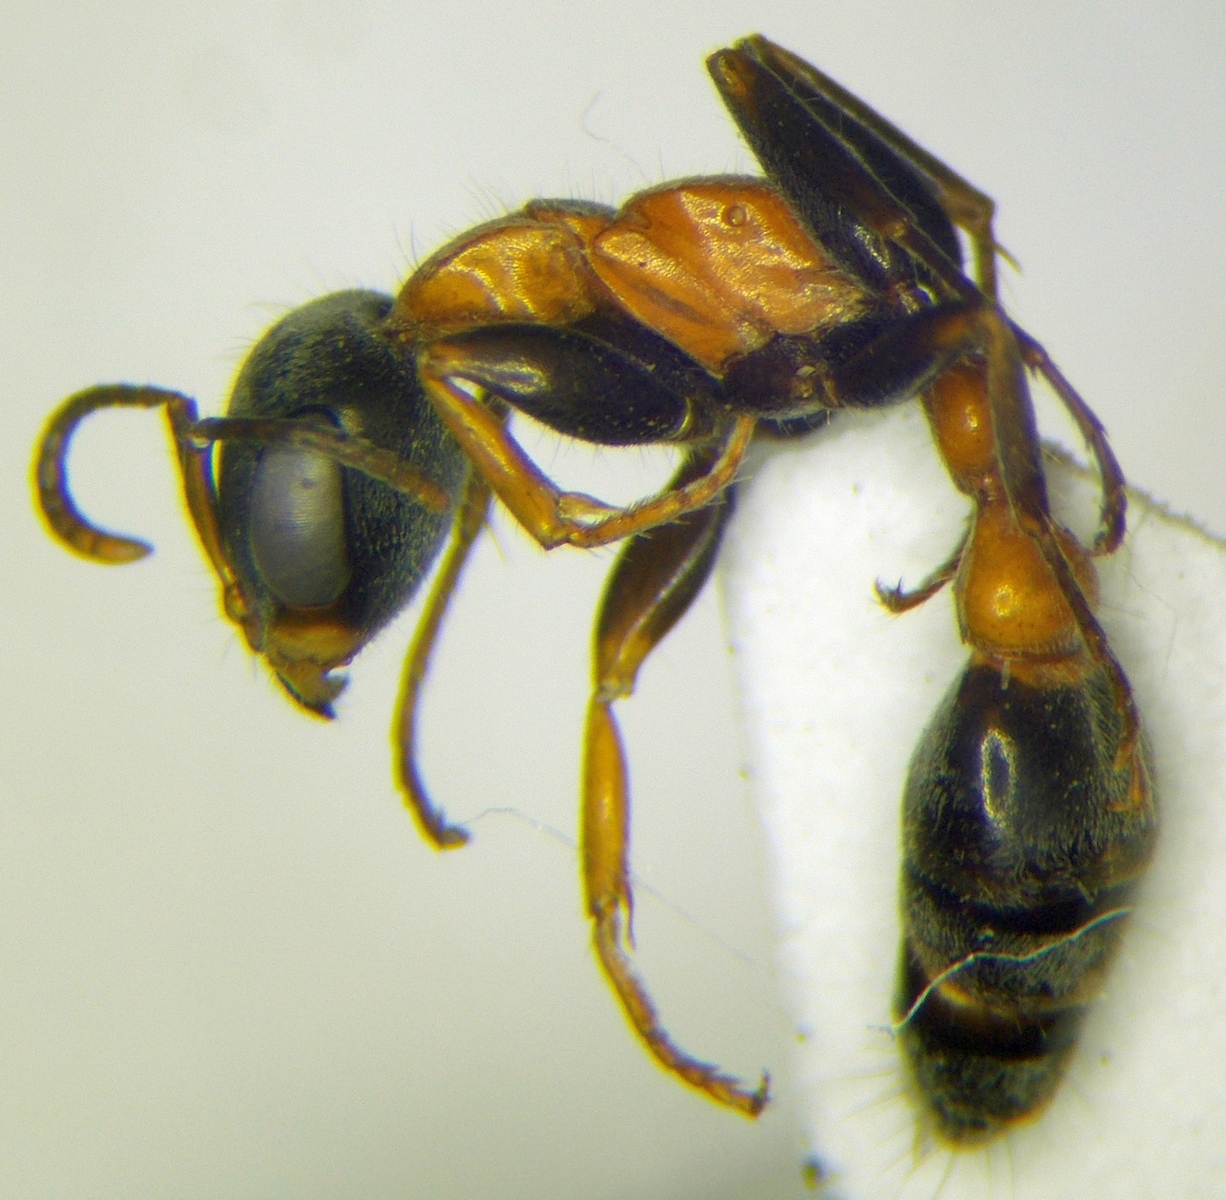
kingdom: Animalia
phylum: Arthropoda
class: Insecta
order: Hymenoptera
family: Formicidae
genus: Pseudomyrmex
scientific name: Pseudomyrmex gracilis
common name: Graceful twig ant
